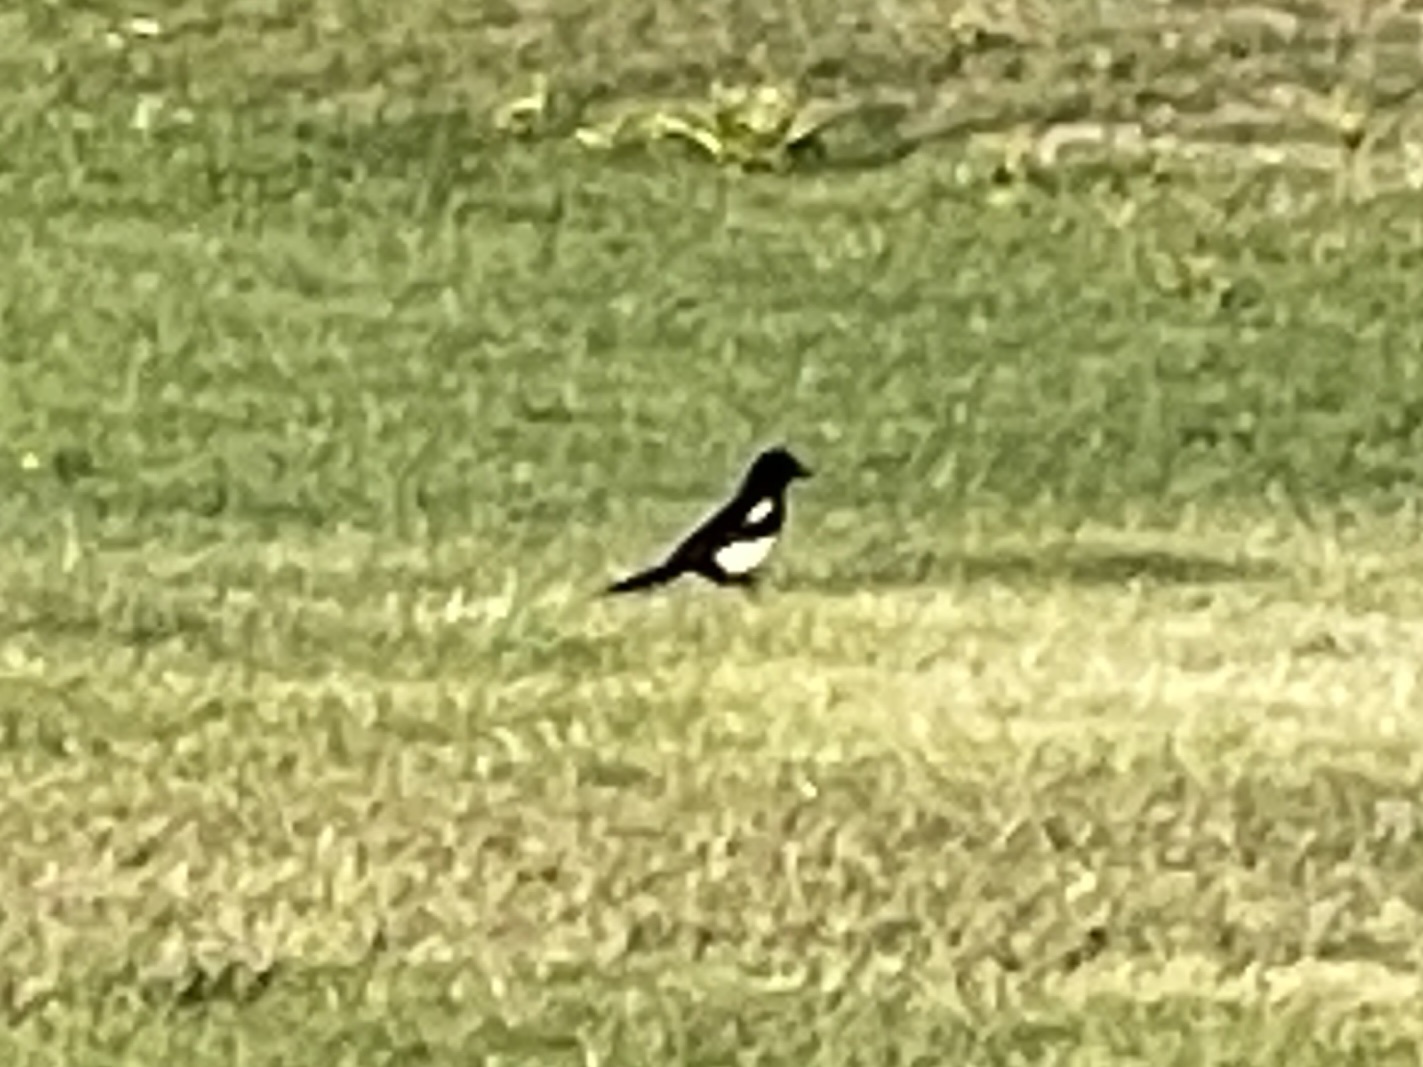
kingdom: Animalia
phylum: Chordata
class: Aves
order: Passeriformes
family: Corvidae
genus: Pica
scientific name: Pica hudsonia
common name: Black-billed magpie
